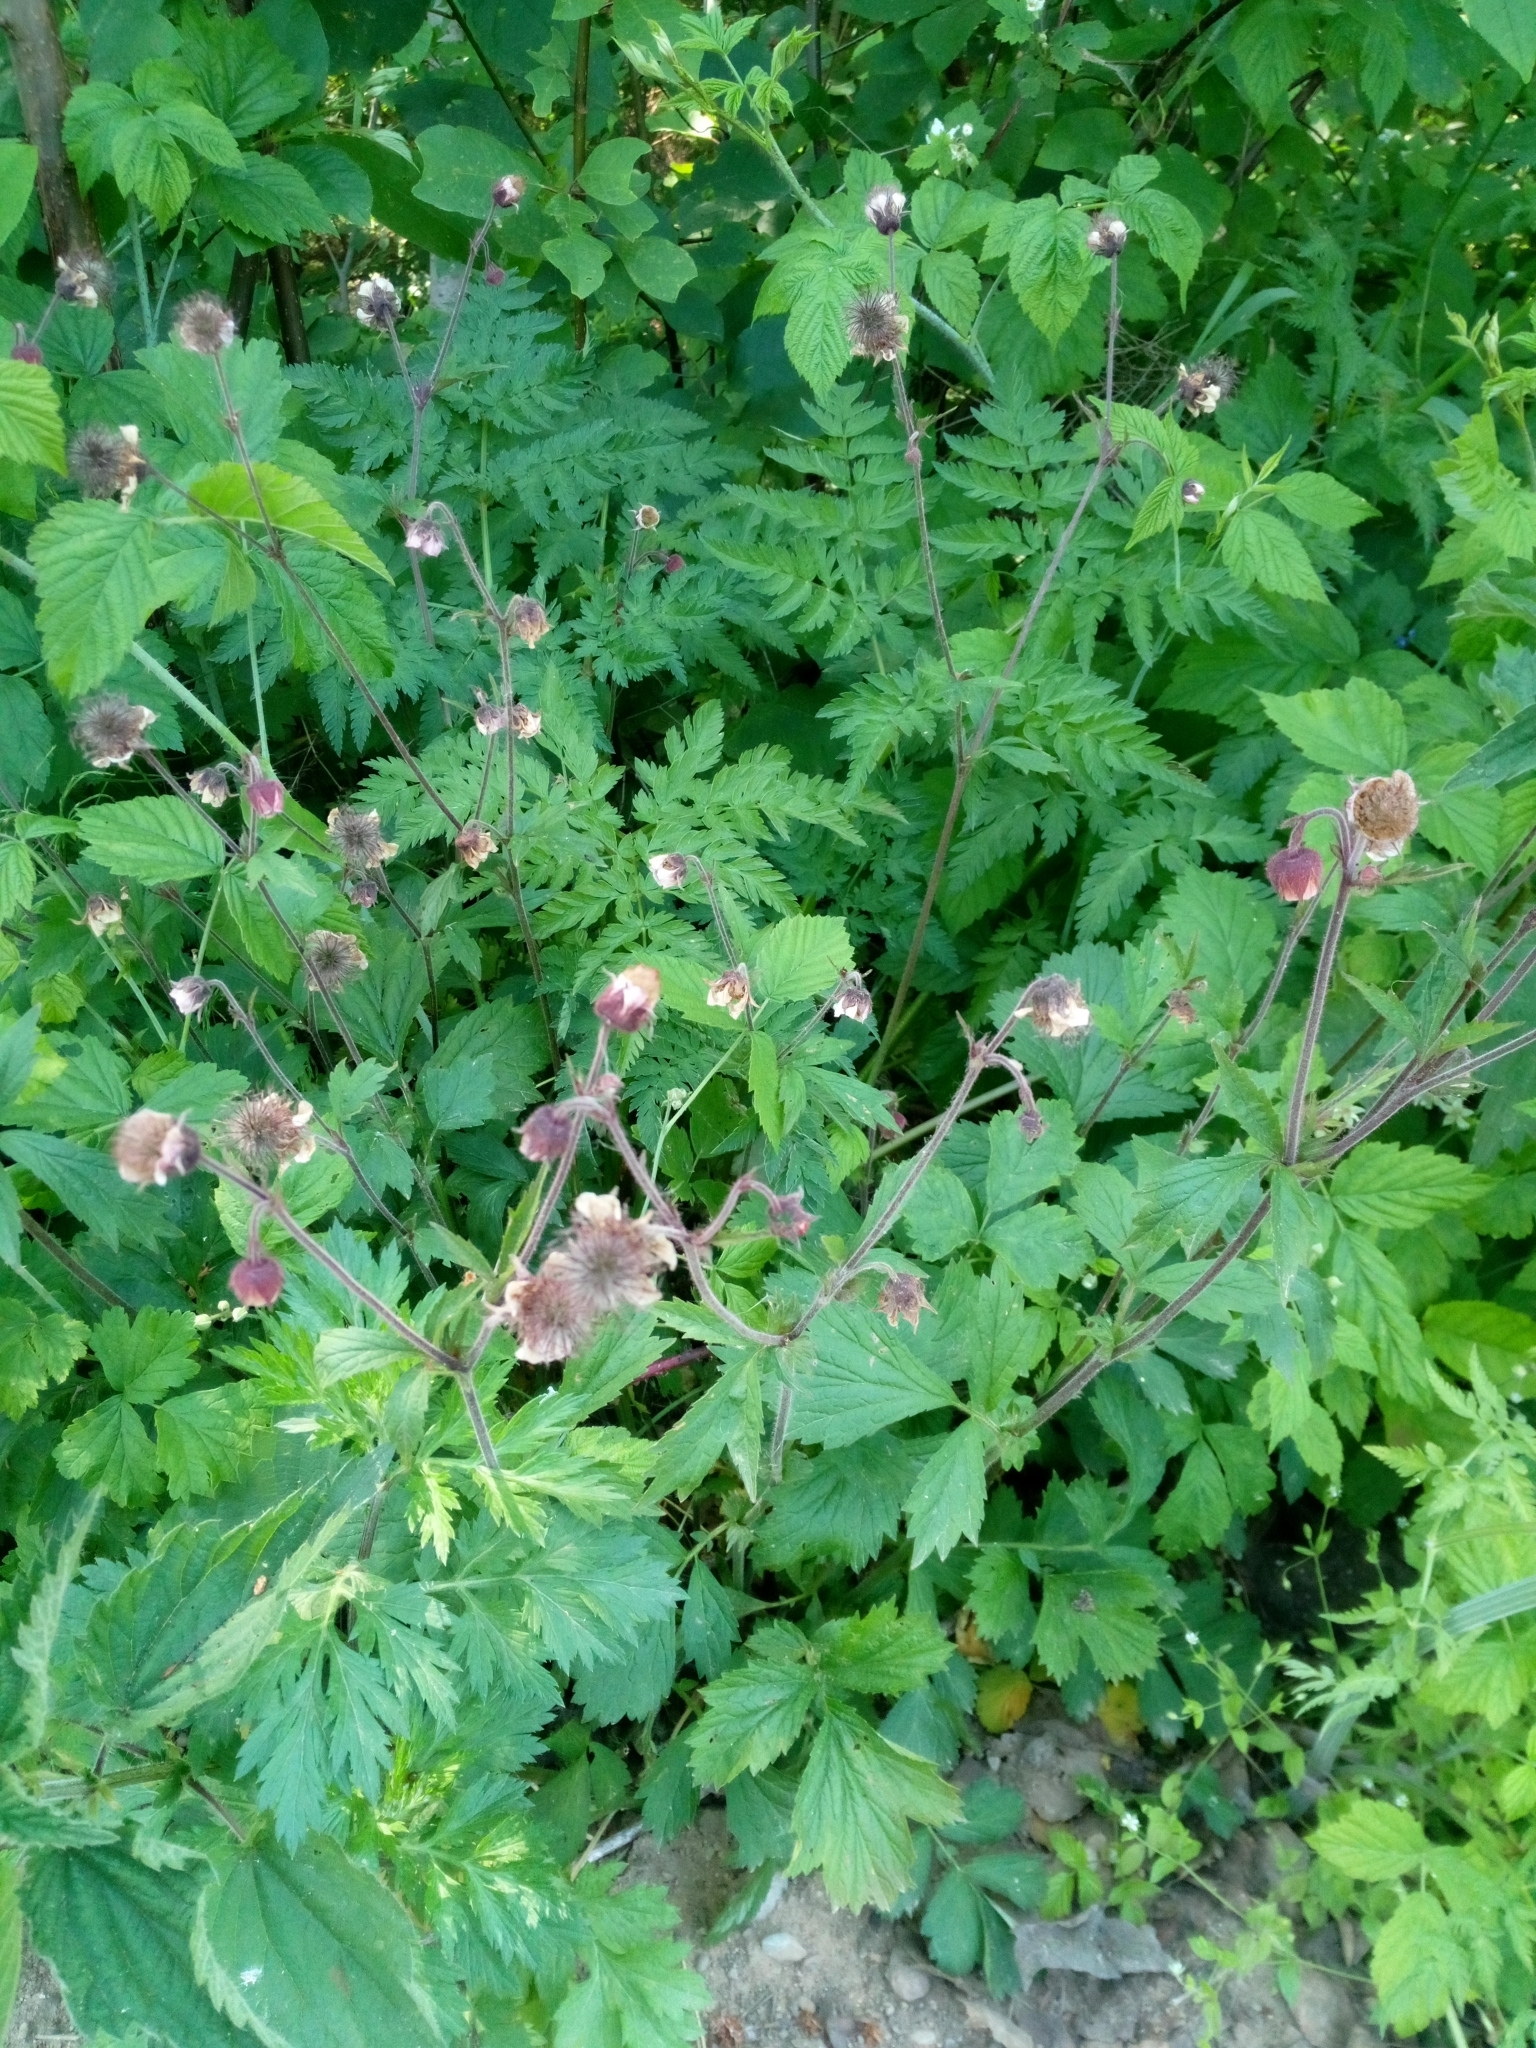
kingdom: Plantae
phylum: Tracheophyta
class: Magnoliopsida
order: Rosales
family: Rosaceae
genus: Geum
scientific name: Geum rivale
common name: Water avens
